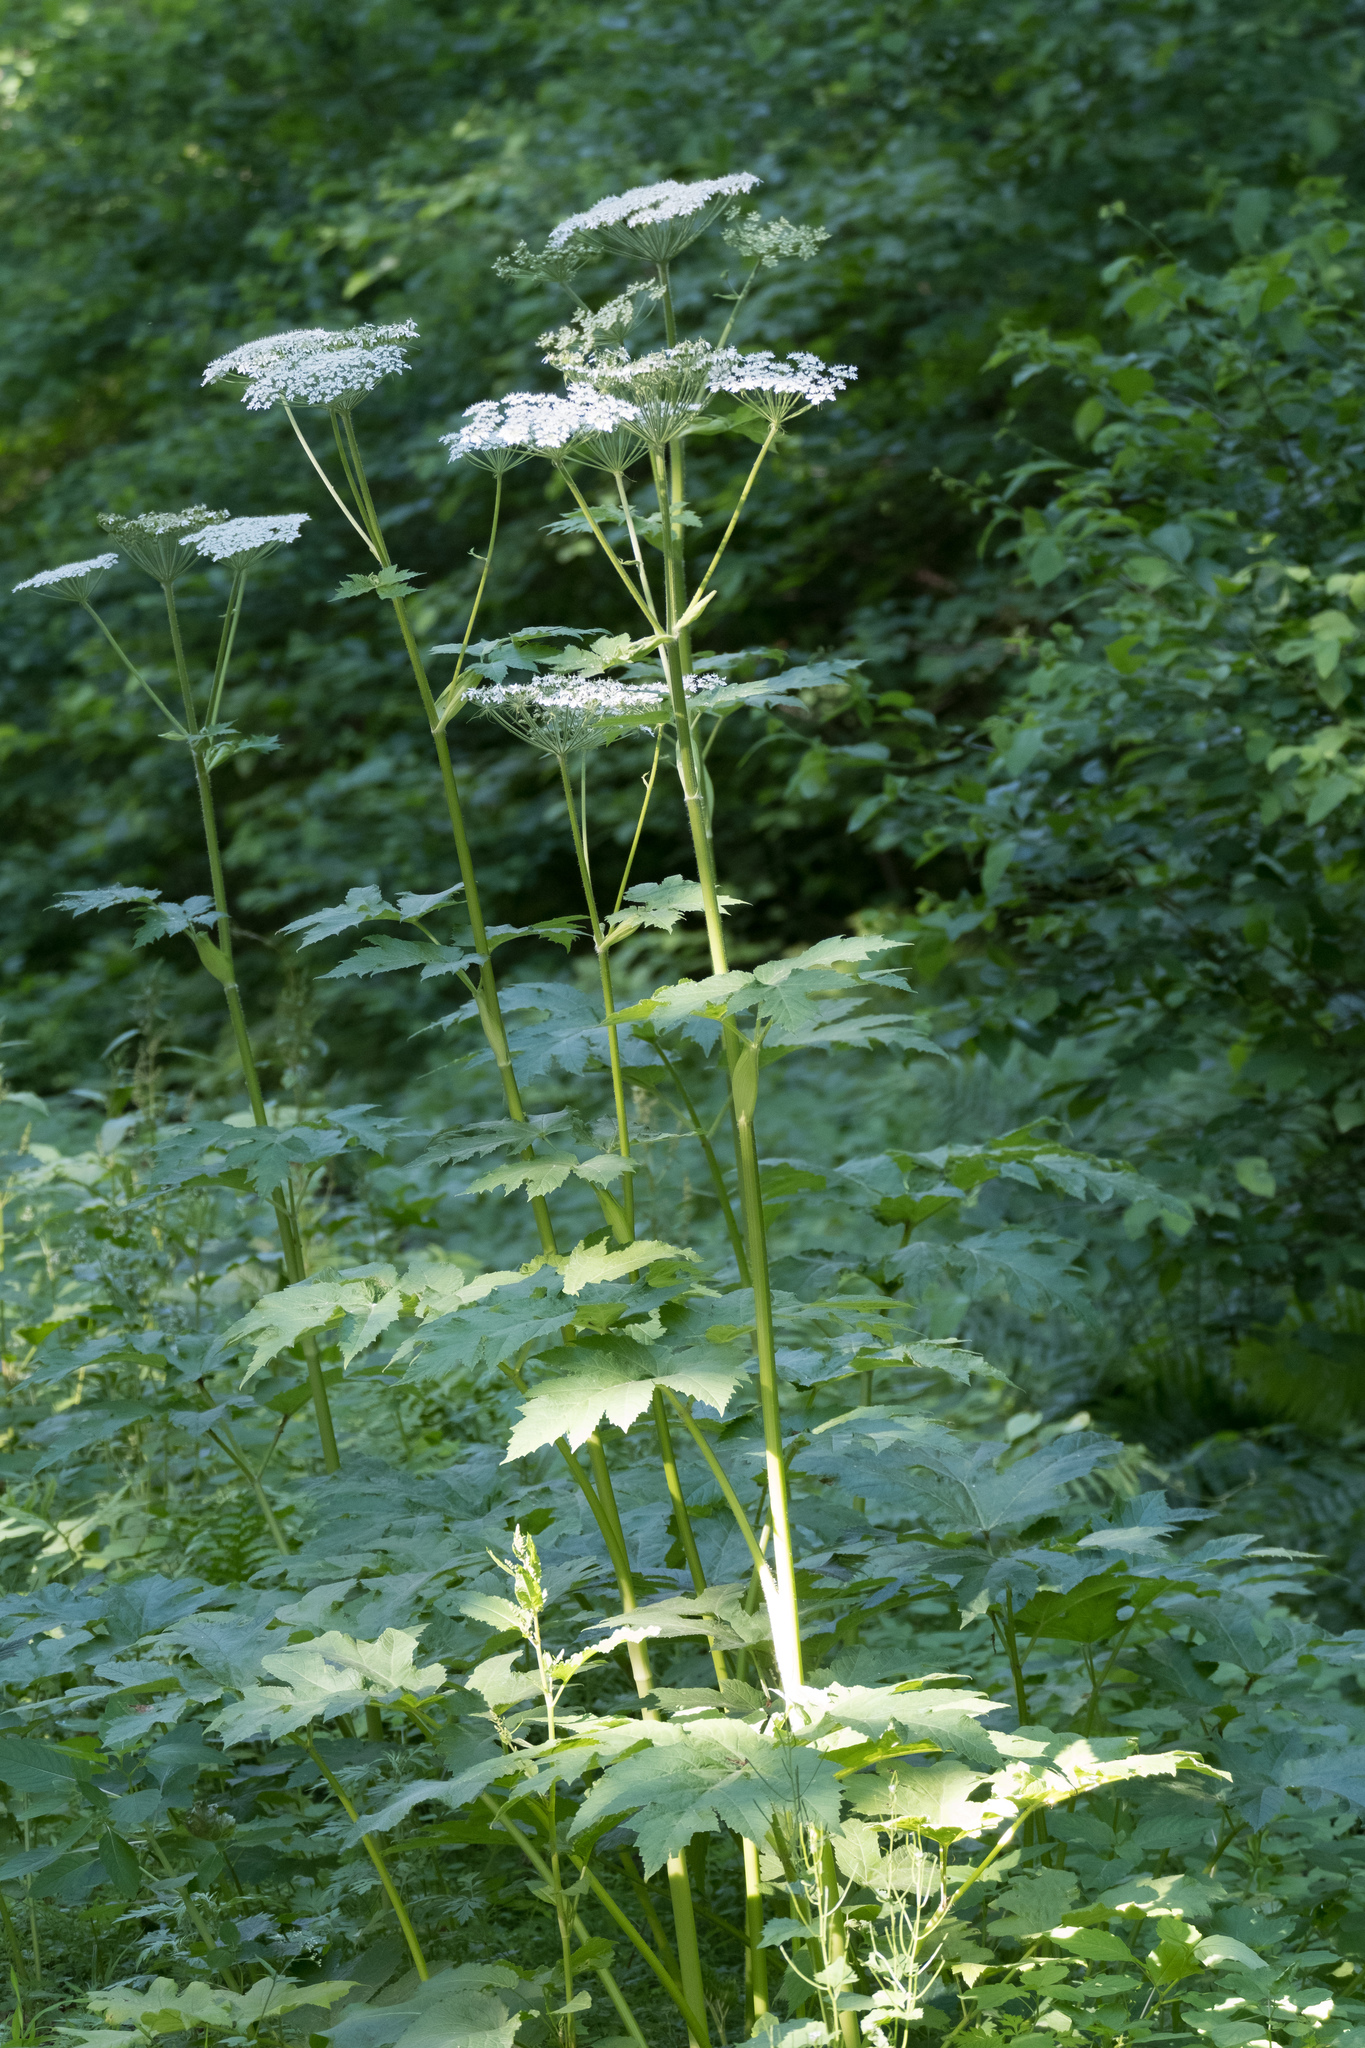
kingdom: Plantae
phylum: Tracheophyta
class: Magnoliopsida
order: Apiales
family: Apiaceae
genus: Heracleum
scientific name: Heracleum maximum
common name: American cow parsnip
